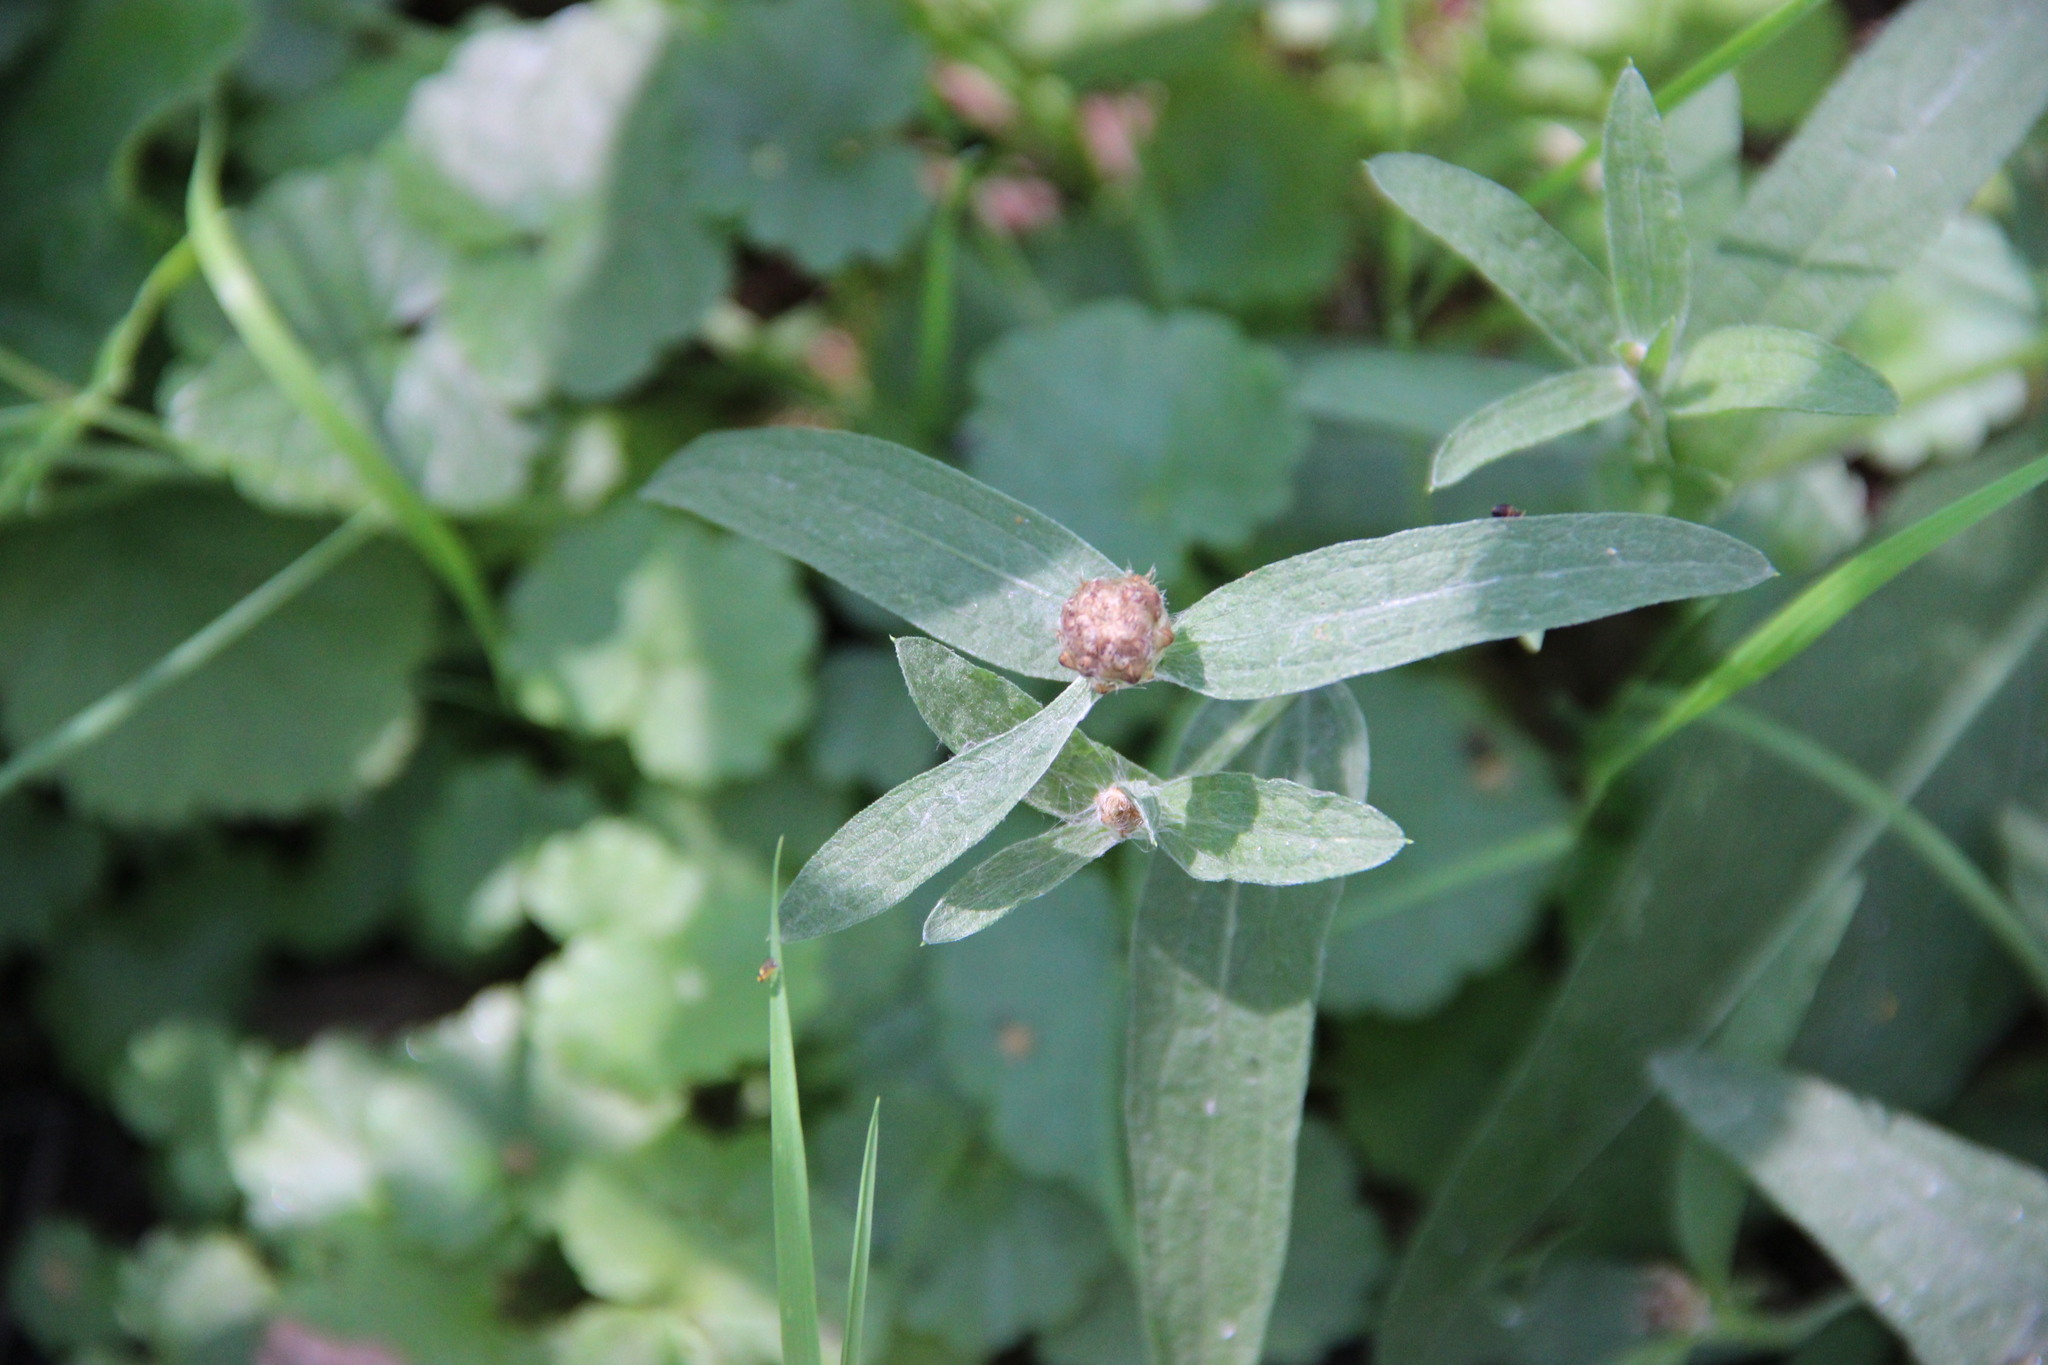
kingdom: Plantae
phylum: Tracheophyta
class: Magnoliopsida
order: Asterales
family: Asteraceae
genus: Centaurea
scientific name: Centaurea jacea
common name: Brown knapweed
